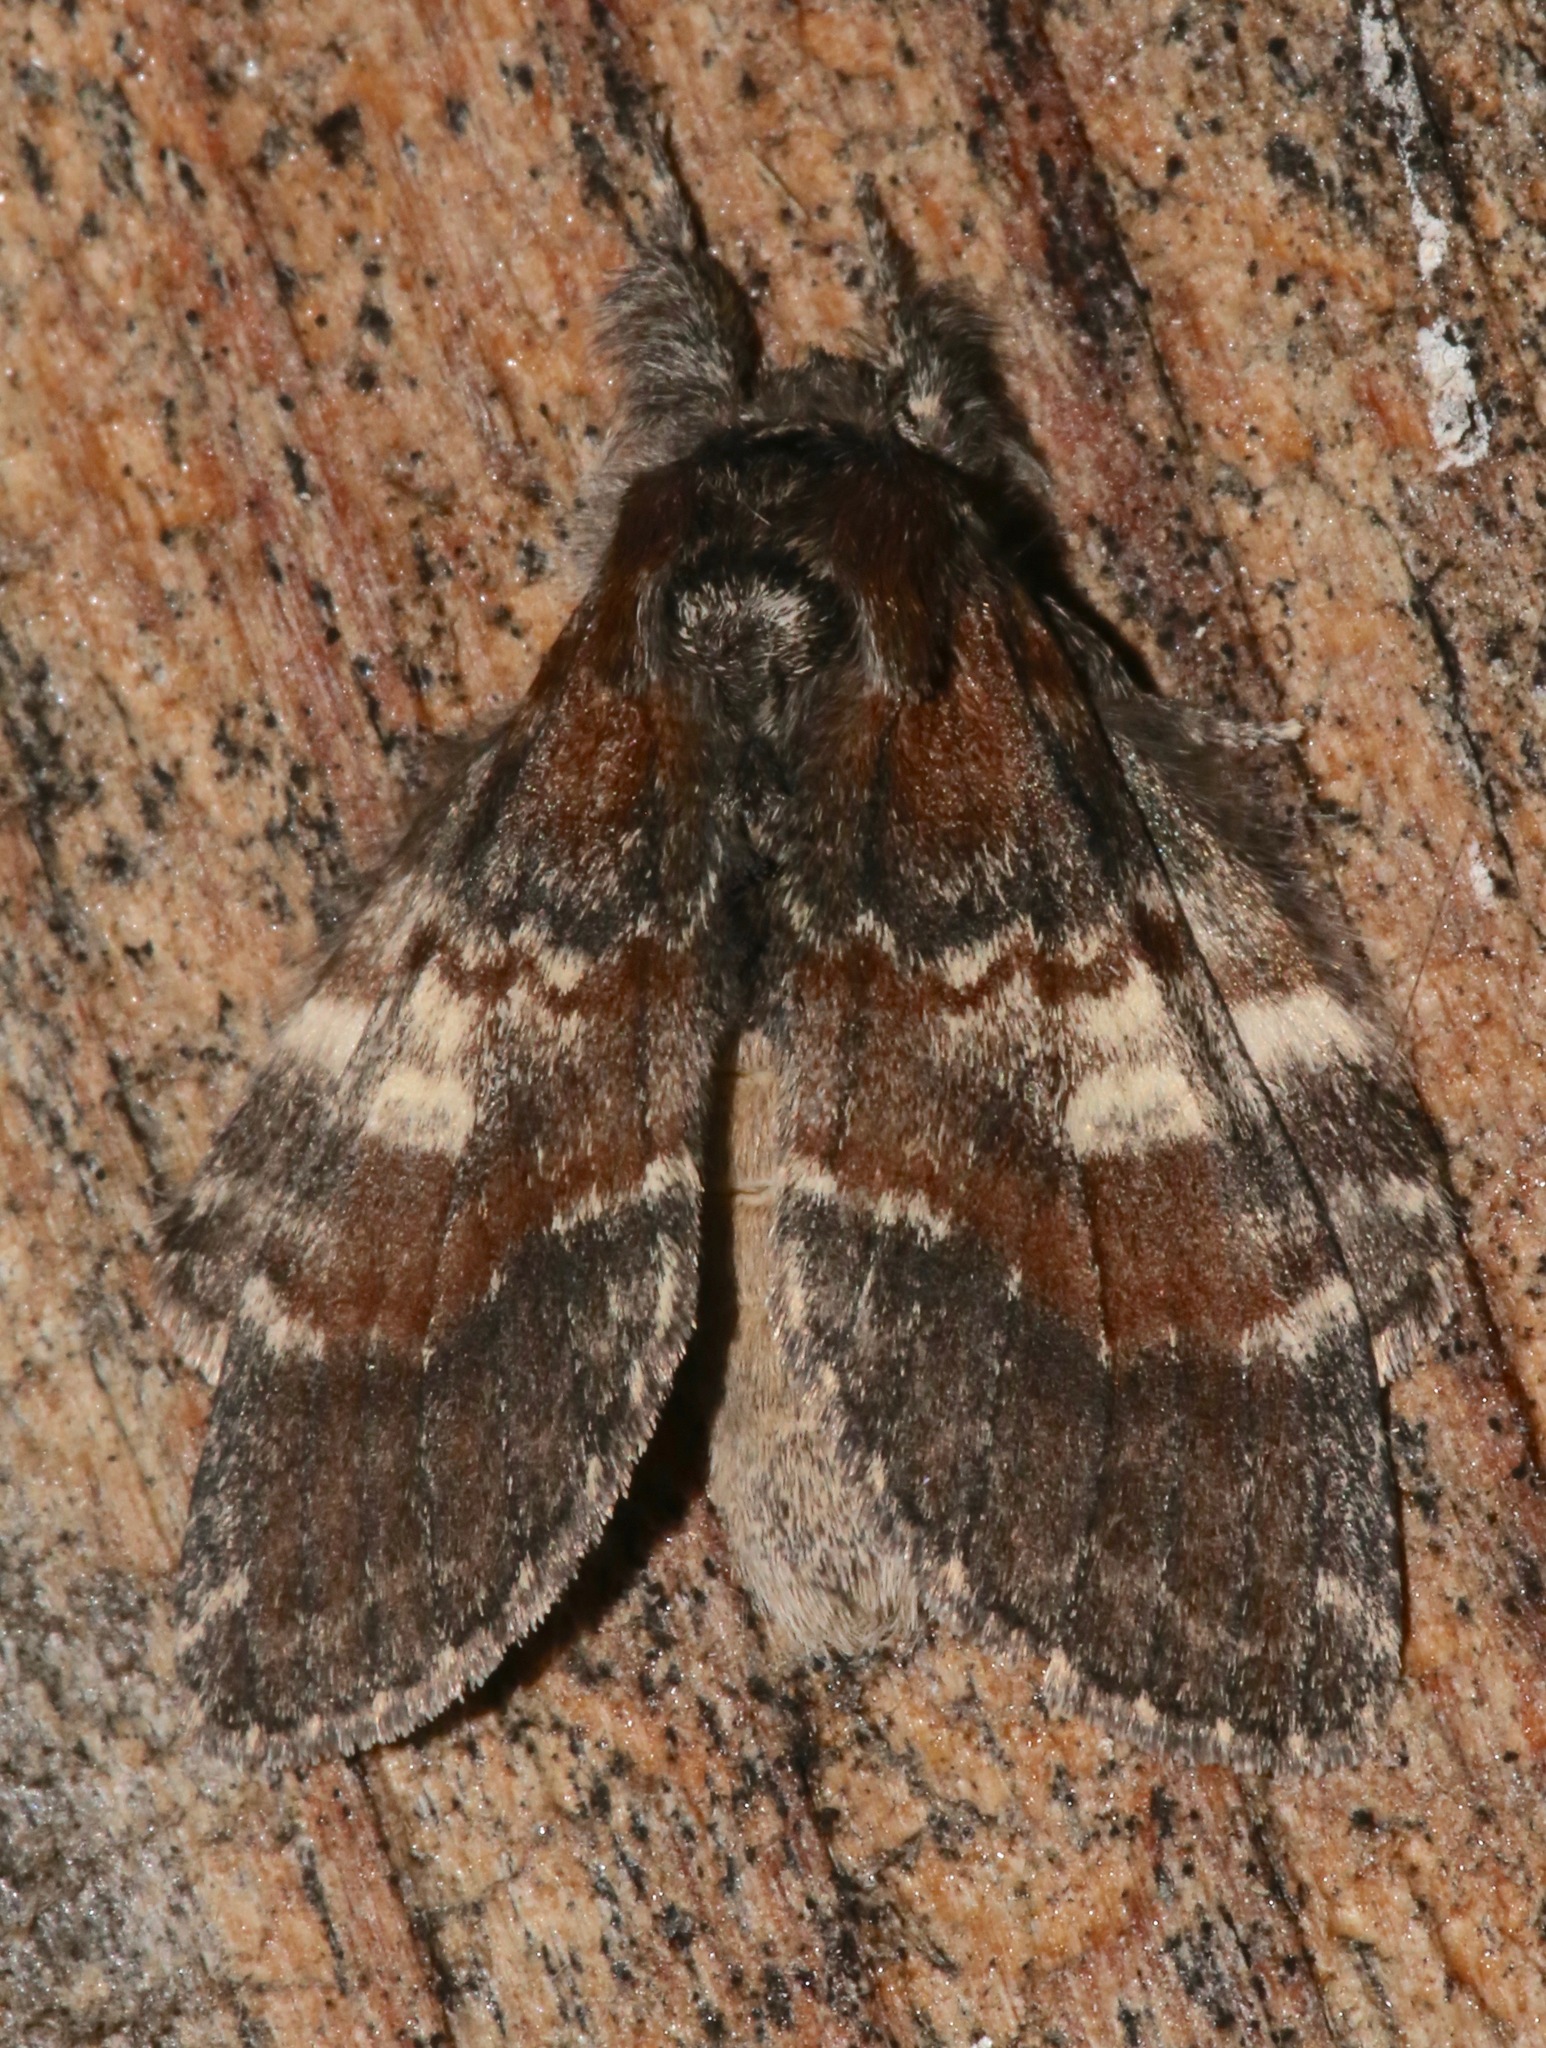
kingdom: Animalia
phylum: Arthropoda
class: Insecta
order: Lepidoptera
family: Notodontidae
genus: Peridea
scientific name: Peridea ferruginea
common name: Chocolate prominent
